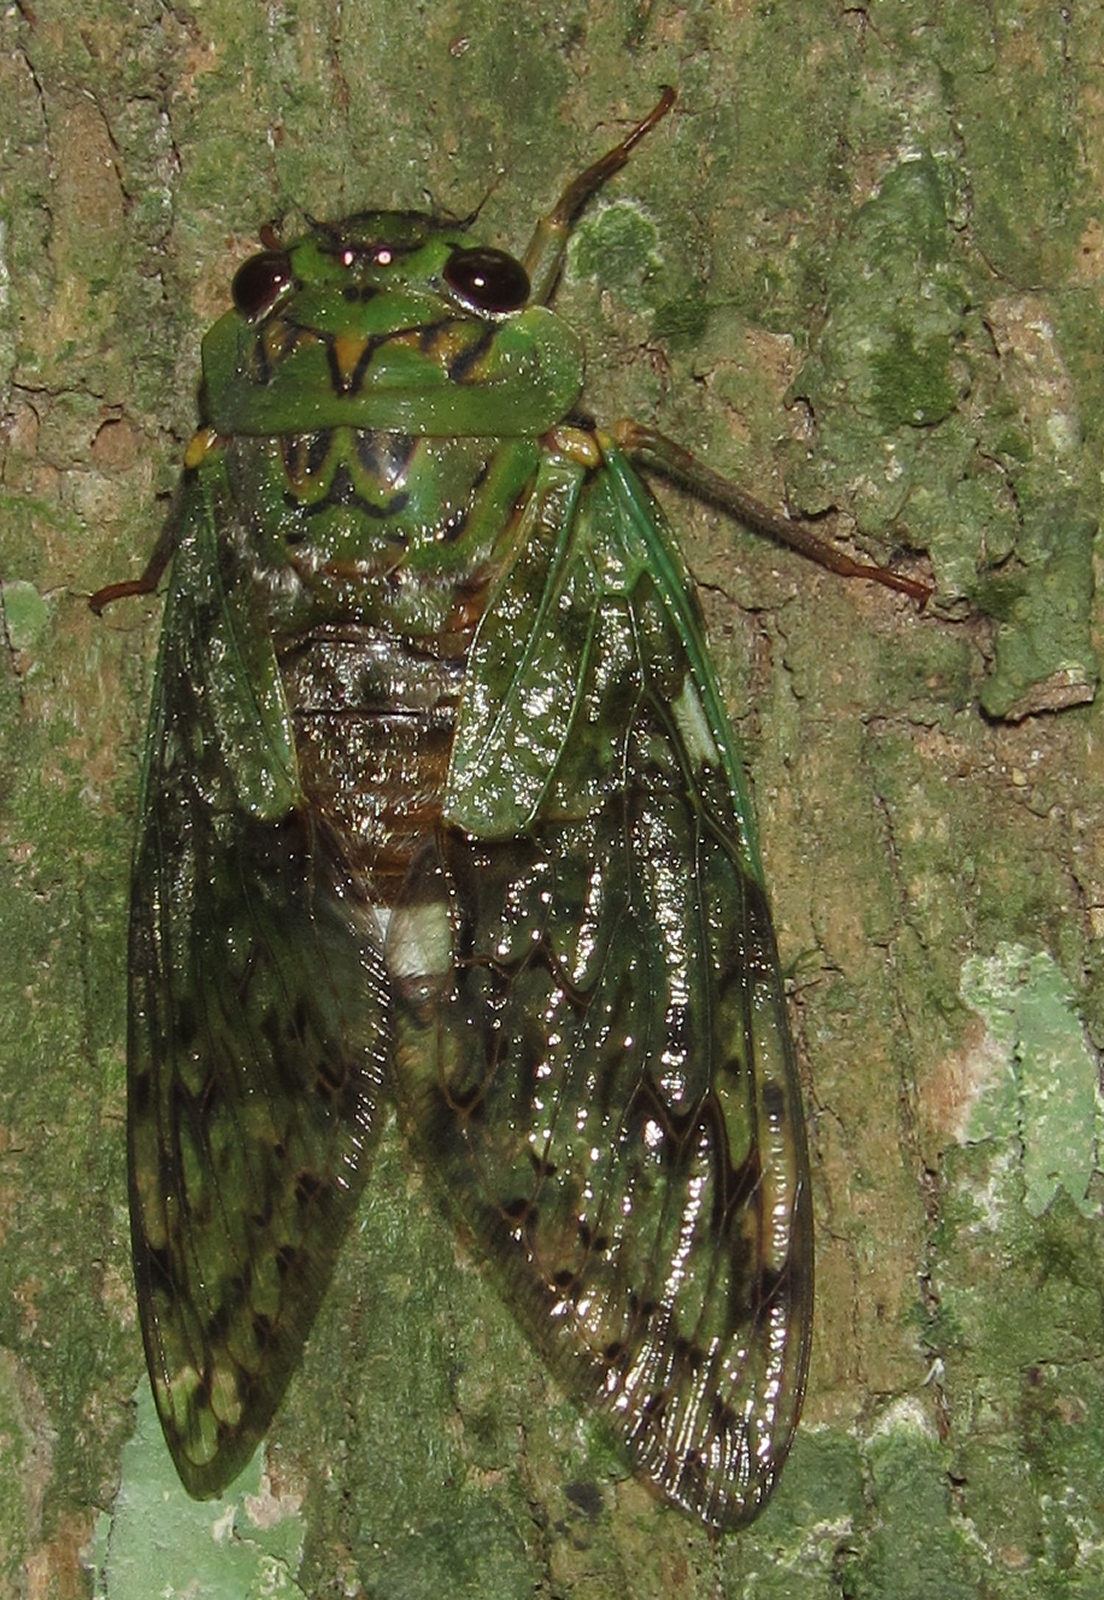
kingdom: Animalia
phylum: Arthropoda
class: Insecta
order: Hemiptera
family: Cicadidae
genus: Dyticopycna
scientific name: Dyticopycna semiclara
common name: Whining forest cicada
